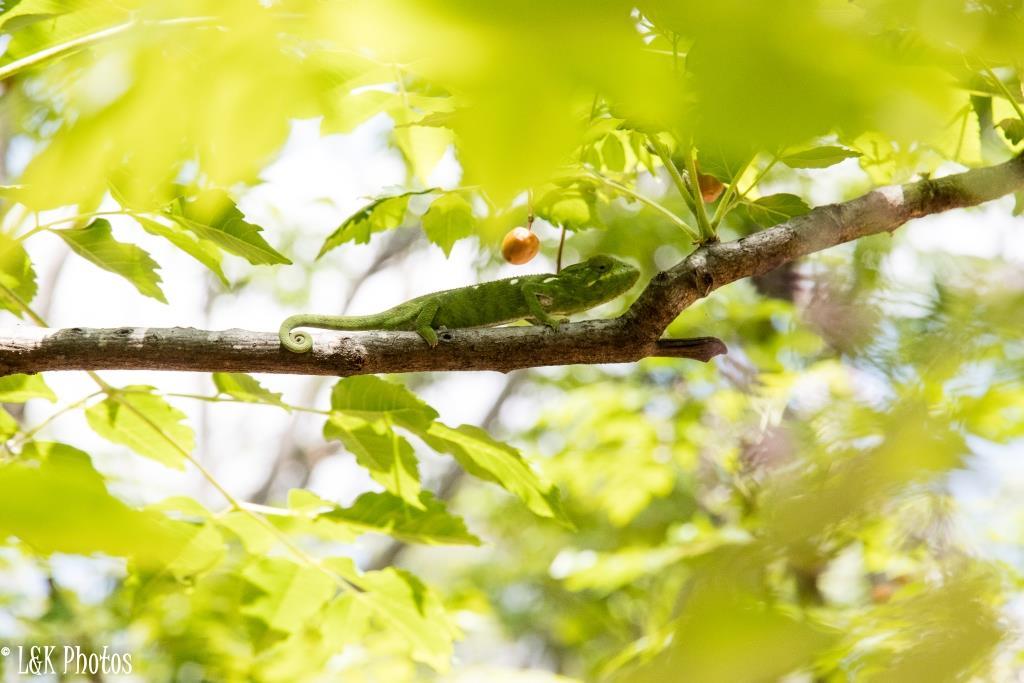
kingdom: Animalia
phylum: Chordata
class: Squamata
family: Chamaeleonidae
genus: Furcifer
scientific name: Furcifer oustaleti
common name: Oustalet's chameleon
